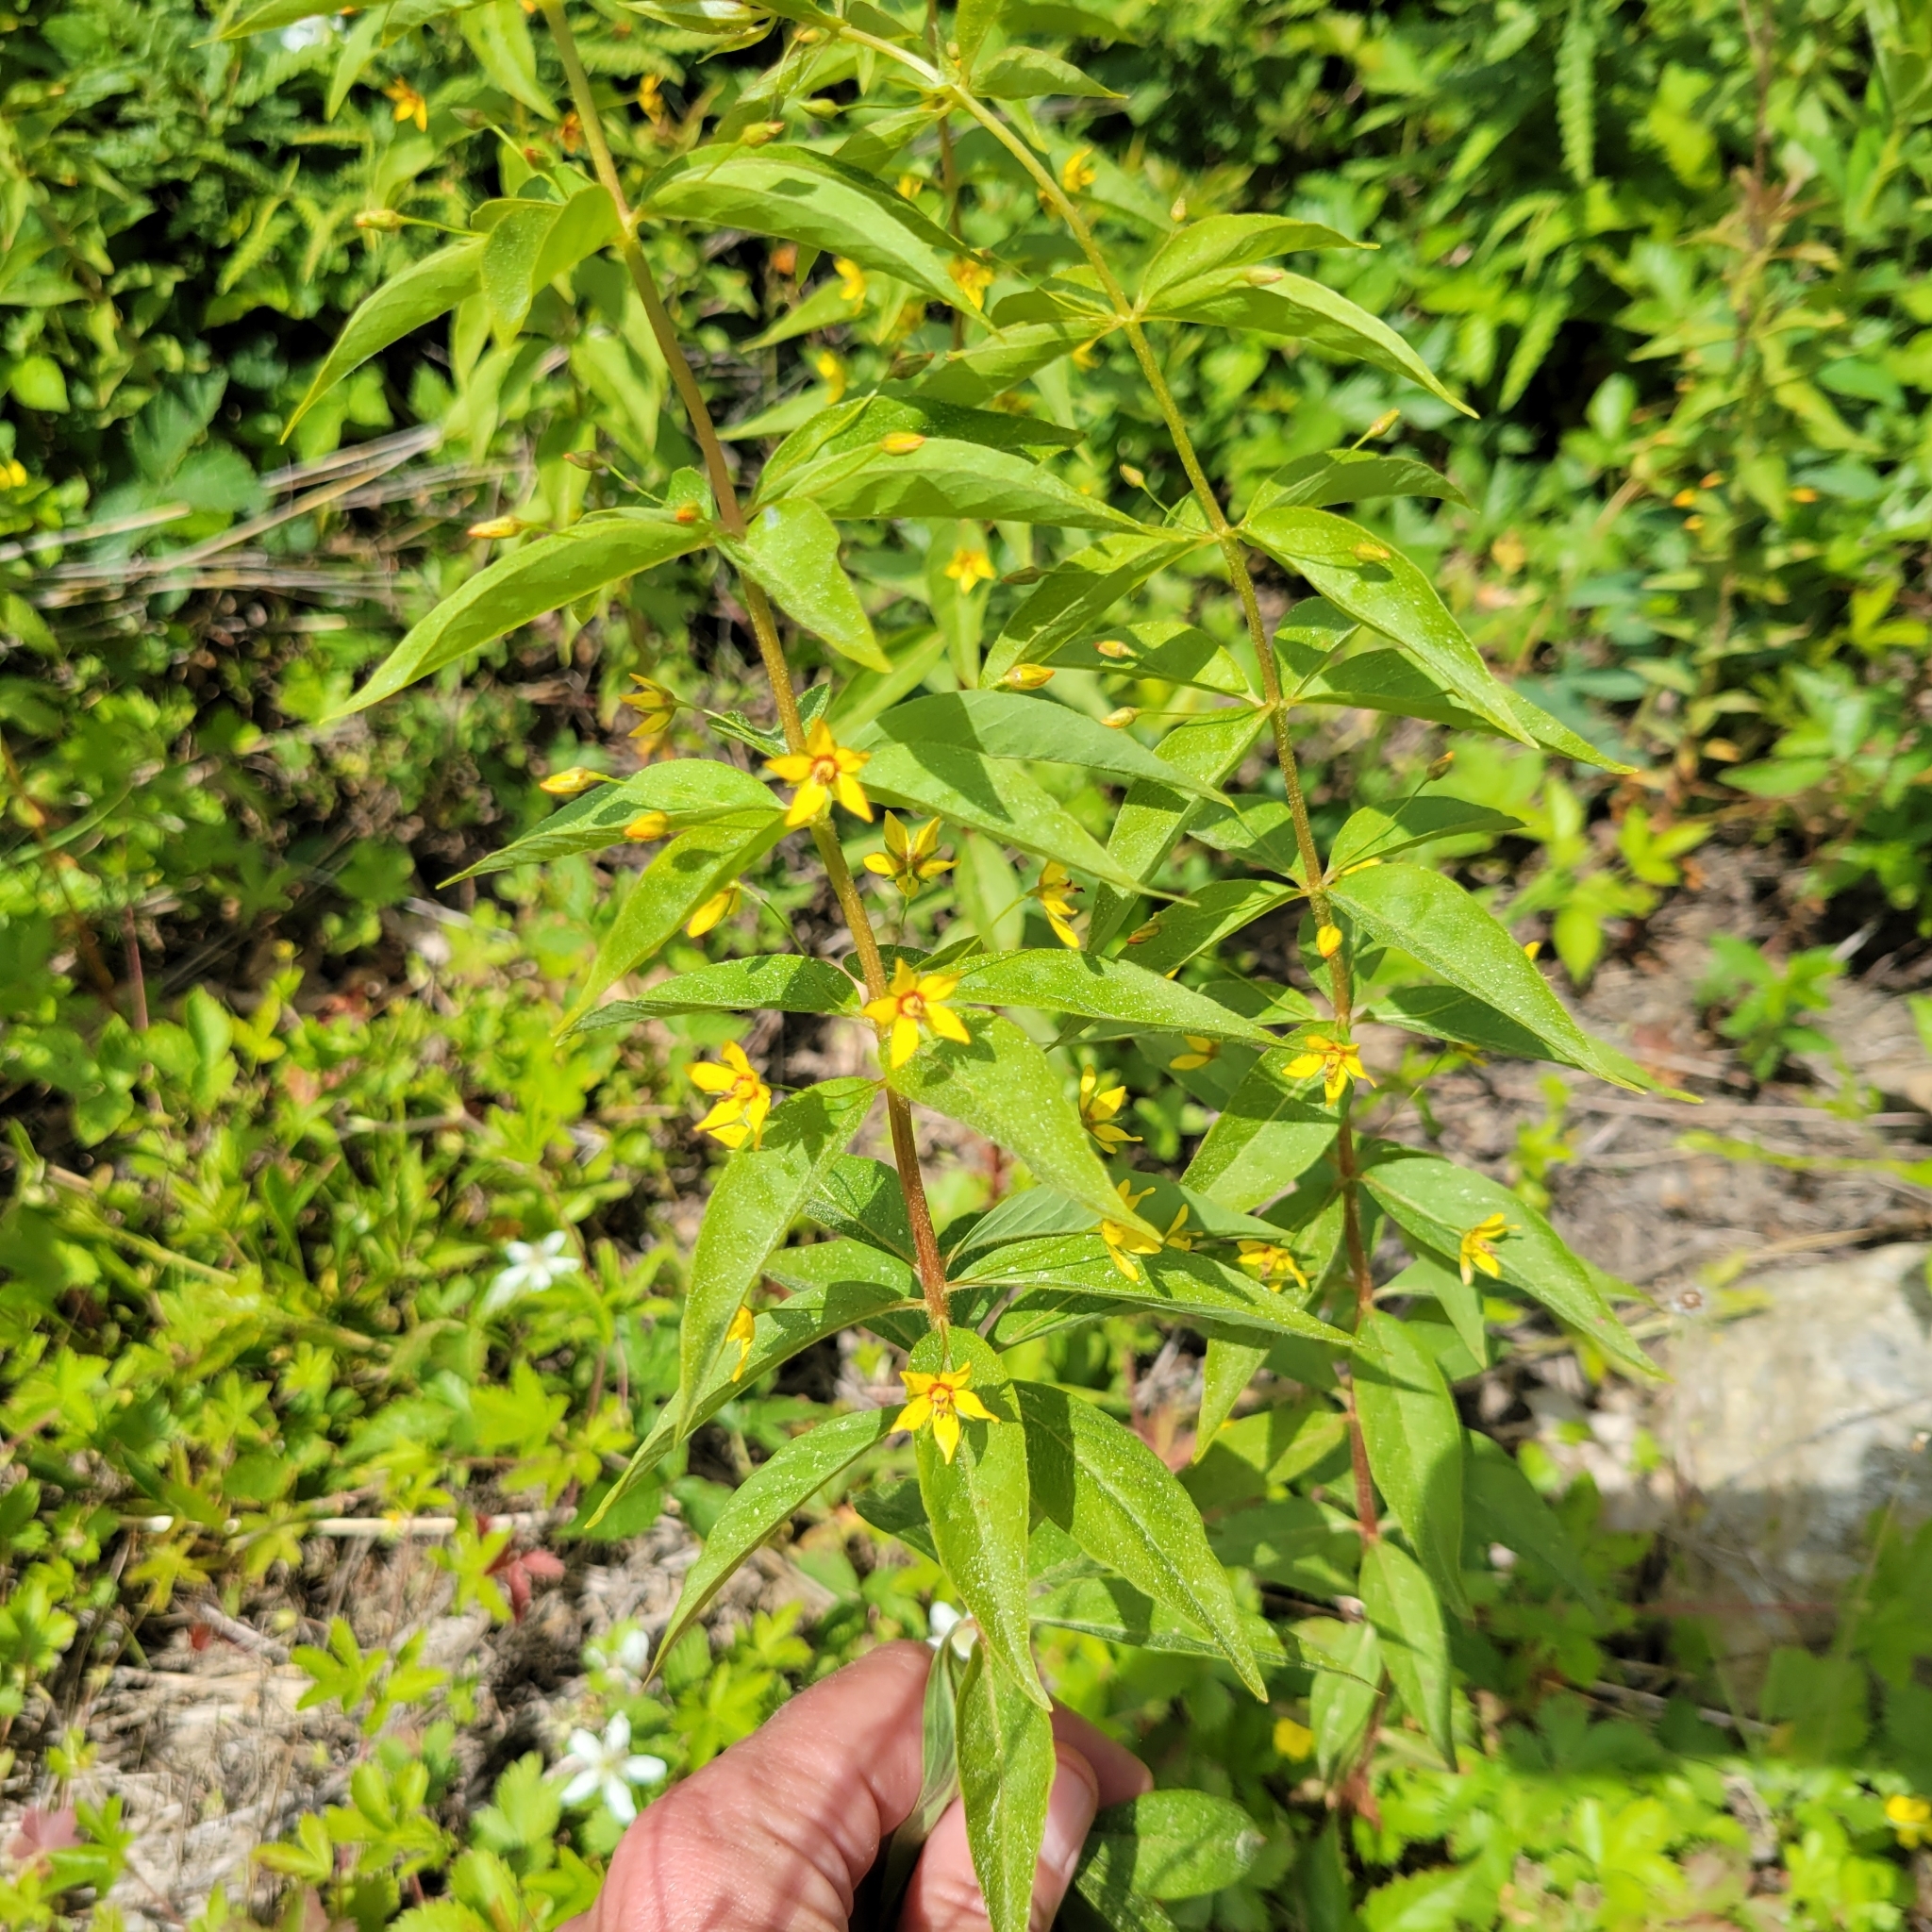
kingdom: Plantae
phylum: Tracheophyta
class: Magnoliopsida
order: Ericales
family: Primulaceae
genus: Lysimachia
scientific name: Lysimachia quadrifolia
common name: Whorled loosestrife
